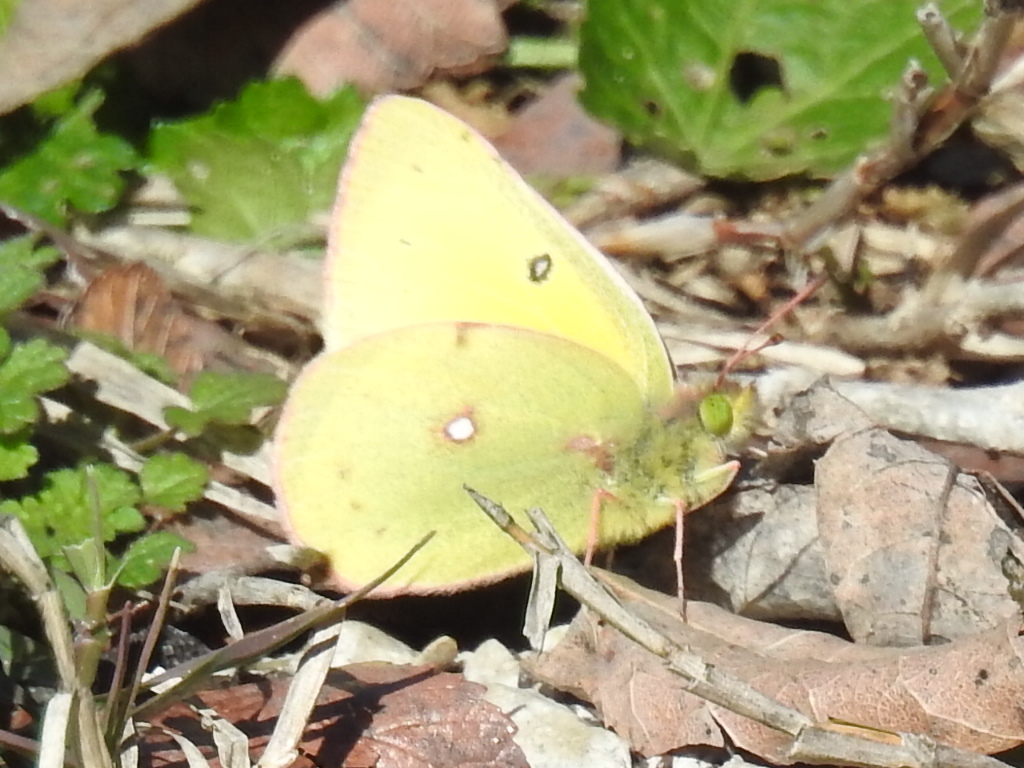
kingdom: Animalia
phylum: Arthropoda
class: Insecta
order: Lepidoptera
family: Pieridae
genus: Colias
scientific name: Colias eurytheme
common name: Alfalfa butterfly
